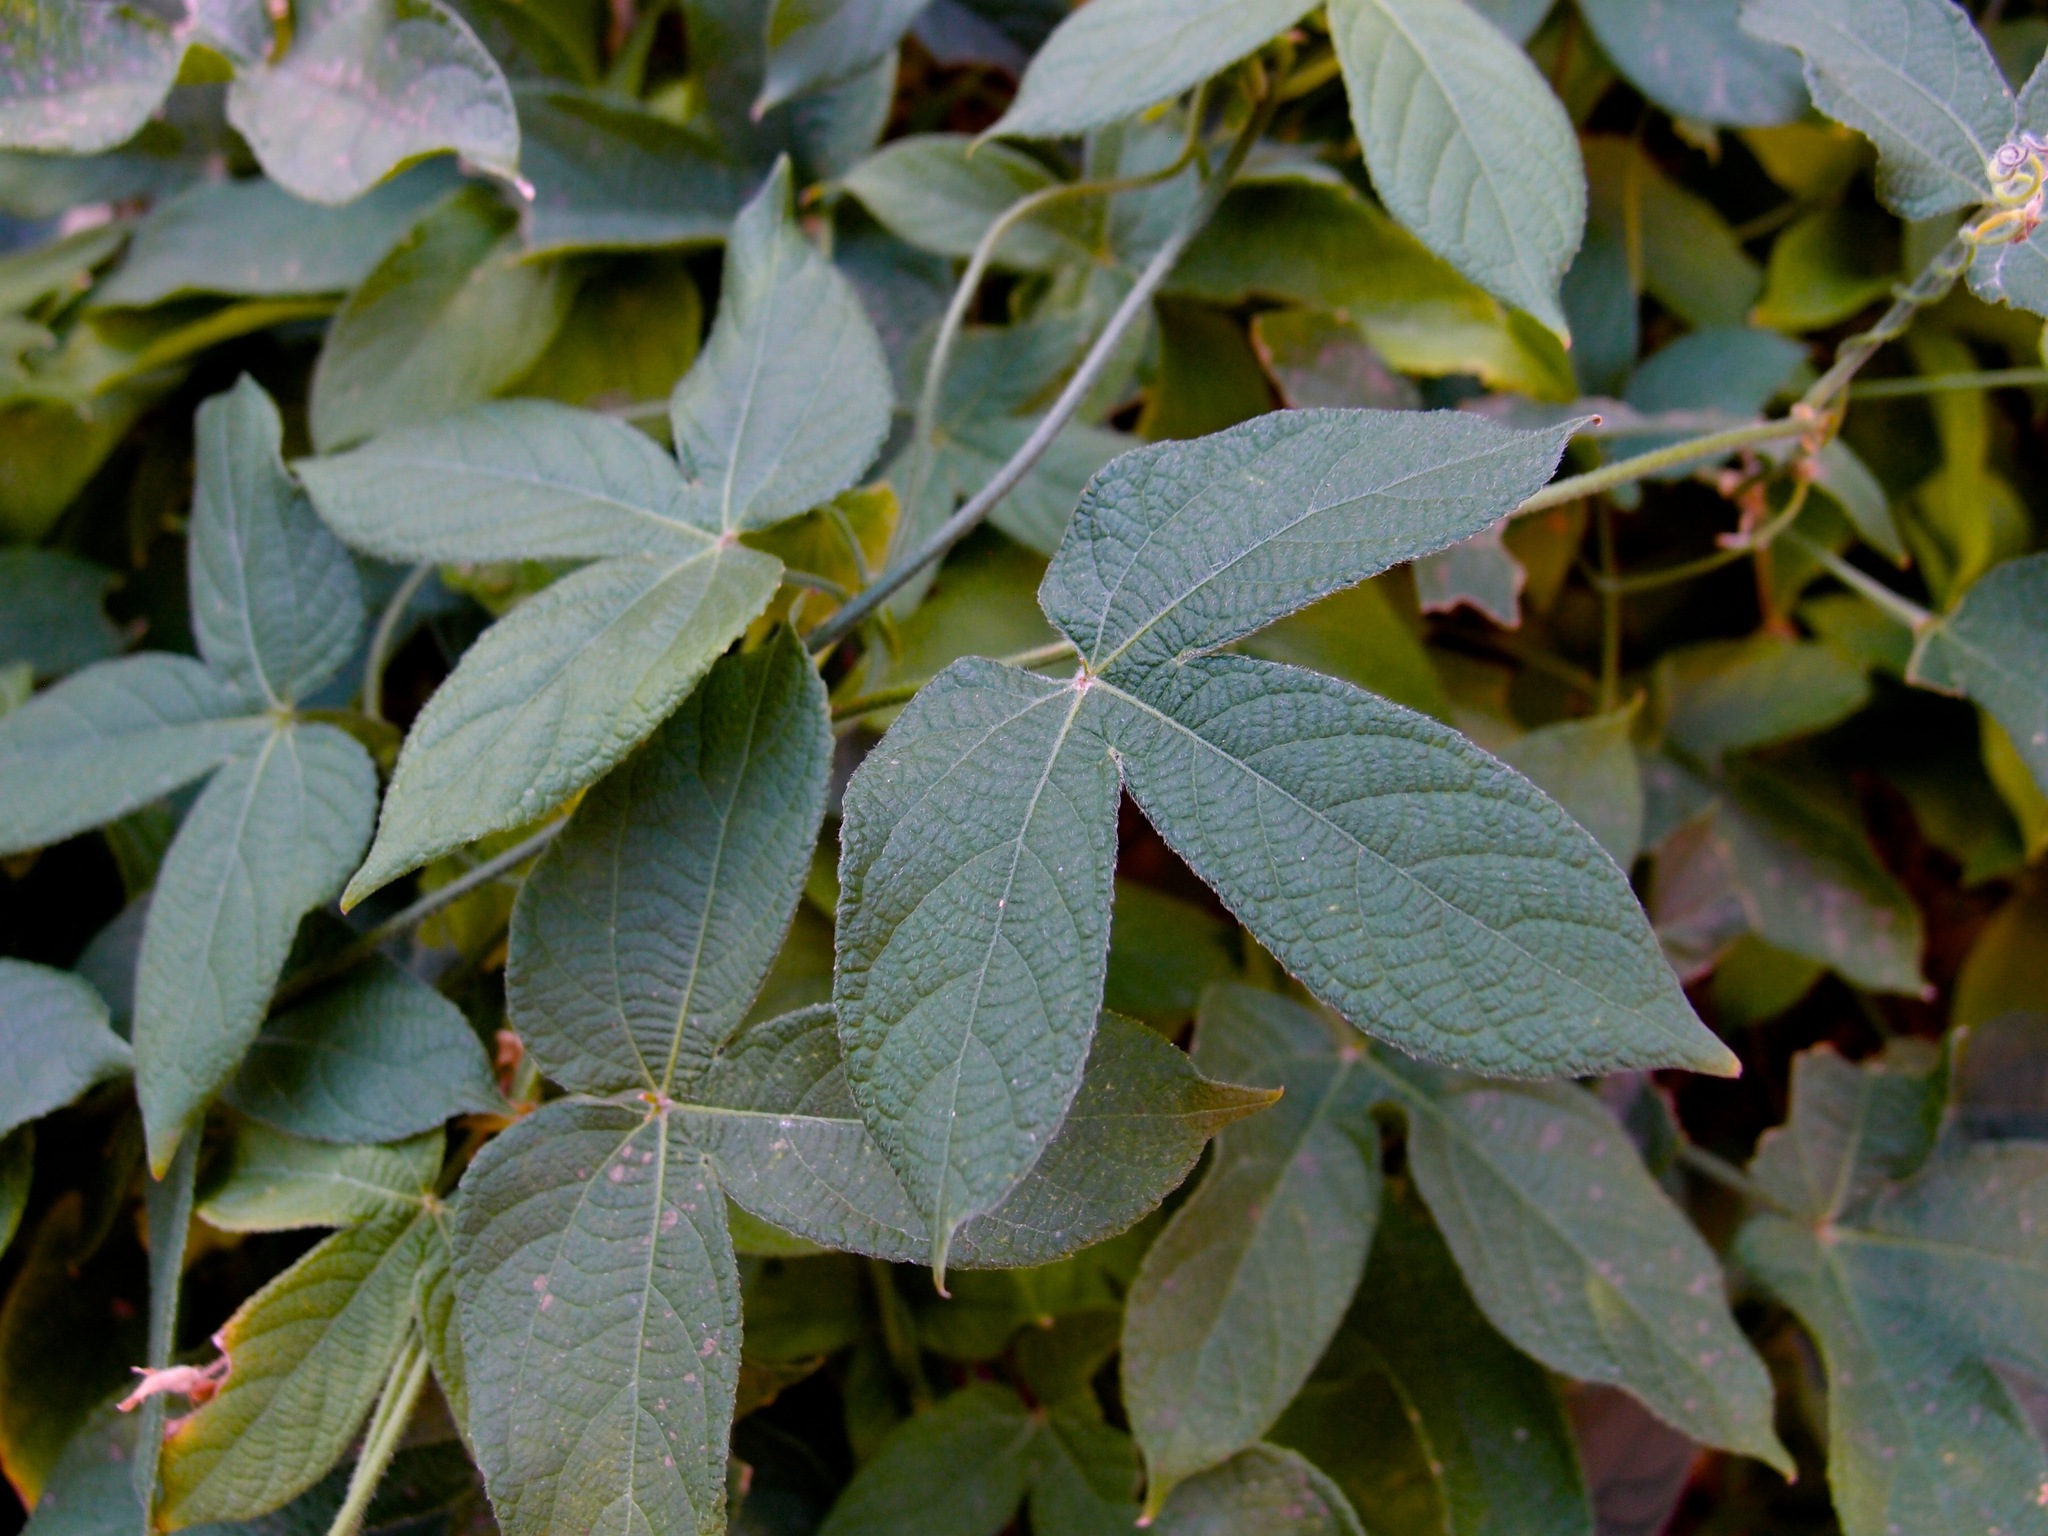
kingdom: Plantae
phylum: Tracheophyta
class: Magnoliopsida
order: Malpighiales
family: Euphorbiaceae
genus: Dalechampia
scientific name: Dalechampia scandens
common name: Spurgecreeper
